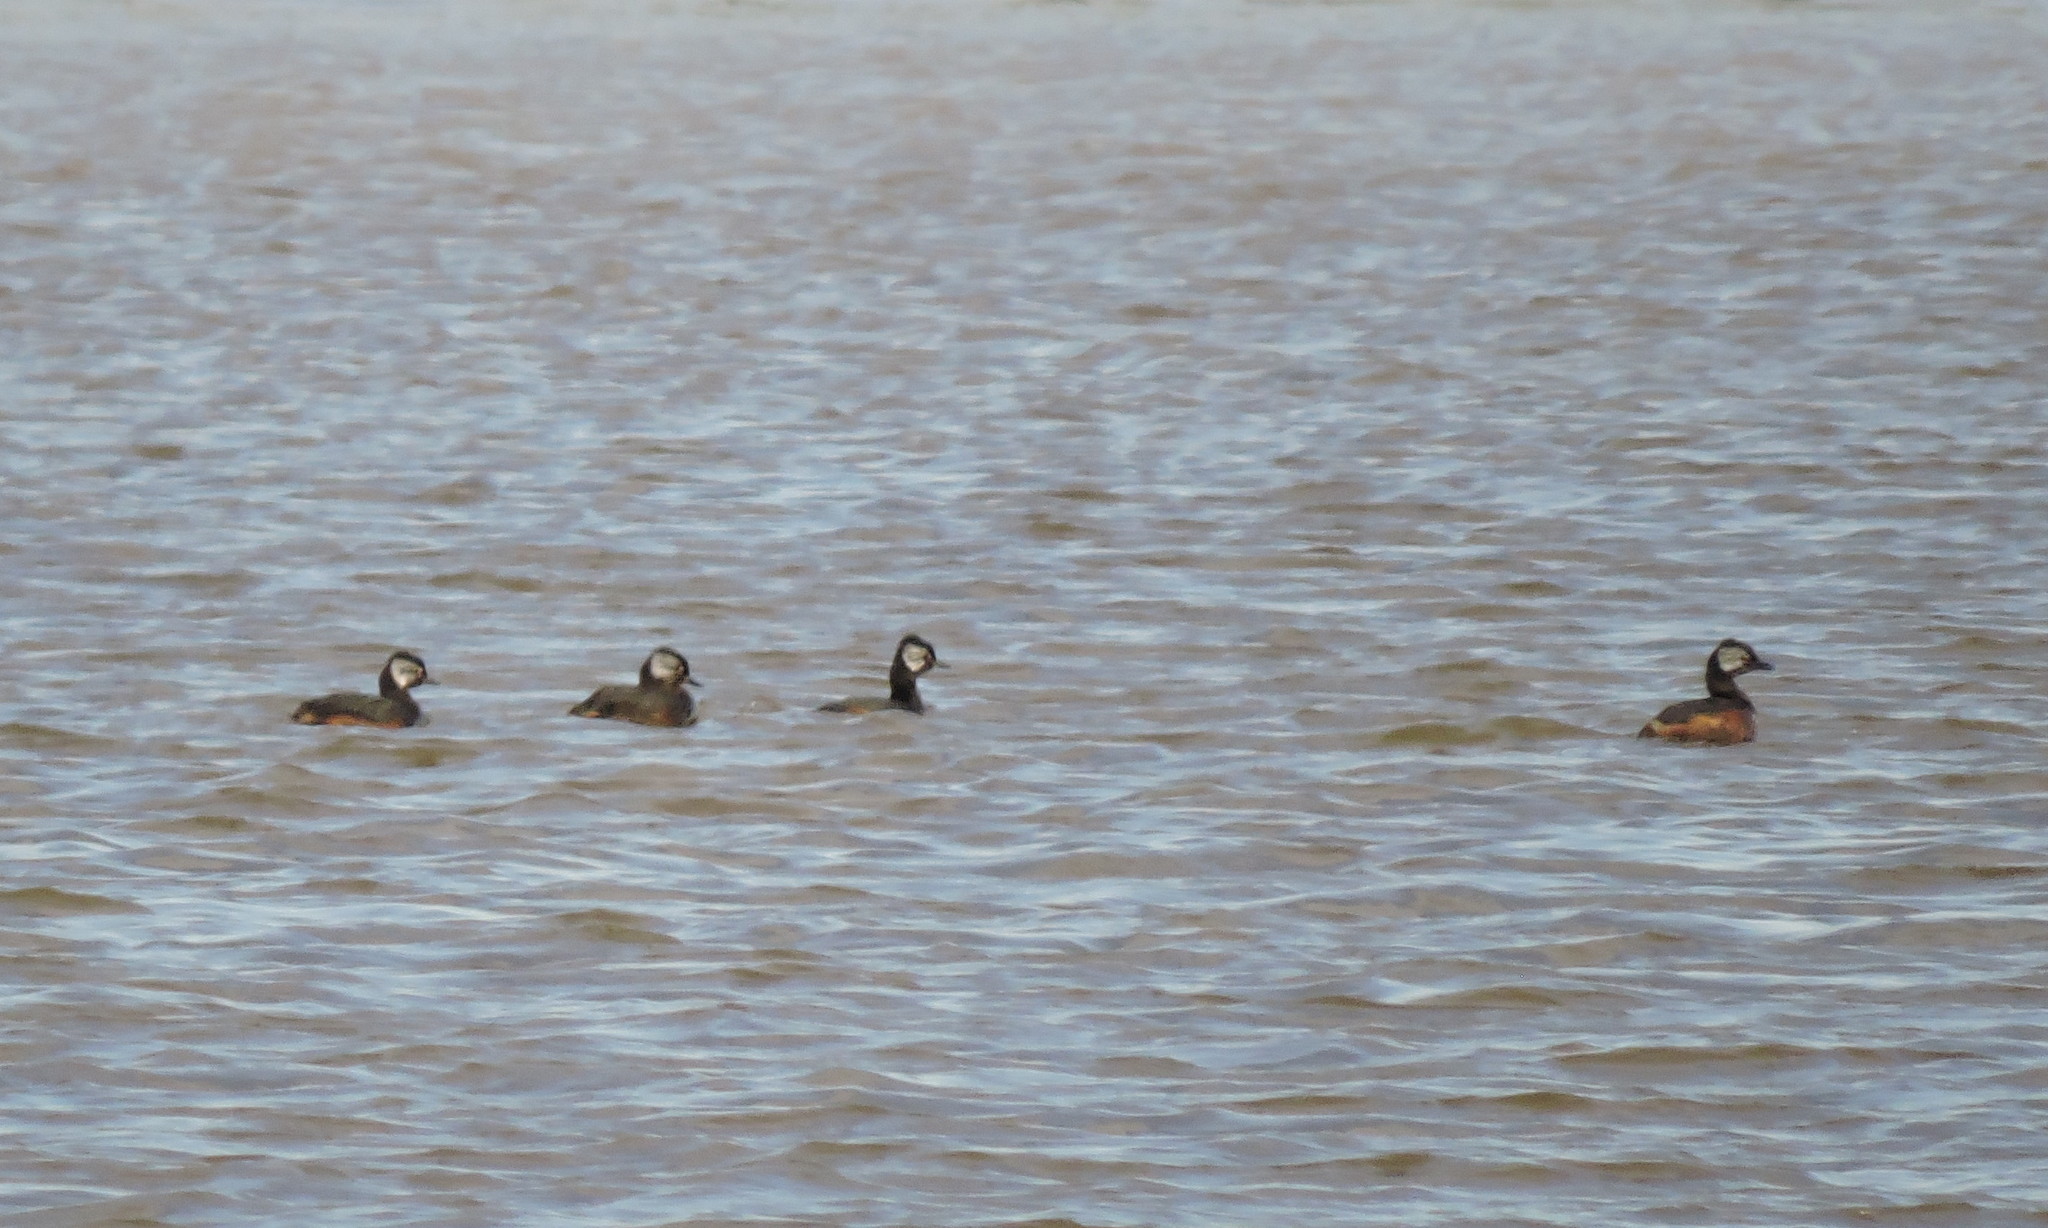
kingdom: Animalia
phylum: Chordata
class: Aves
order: Podicipediformes
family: Podicipedidae
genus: Rollandia
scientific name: Rollandia rolland
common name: White-tufted grebe
